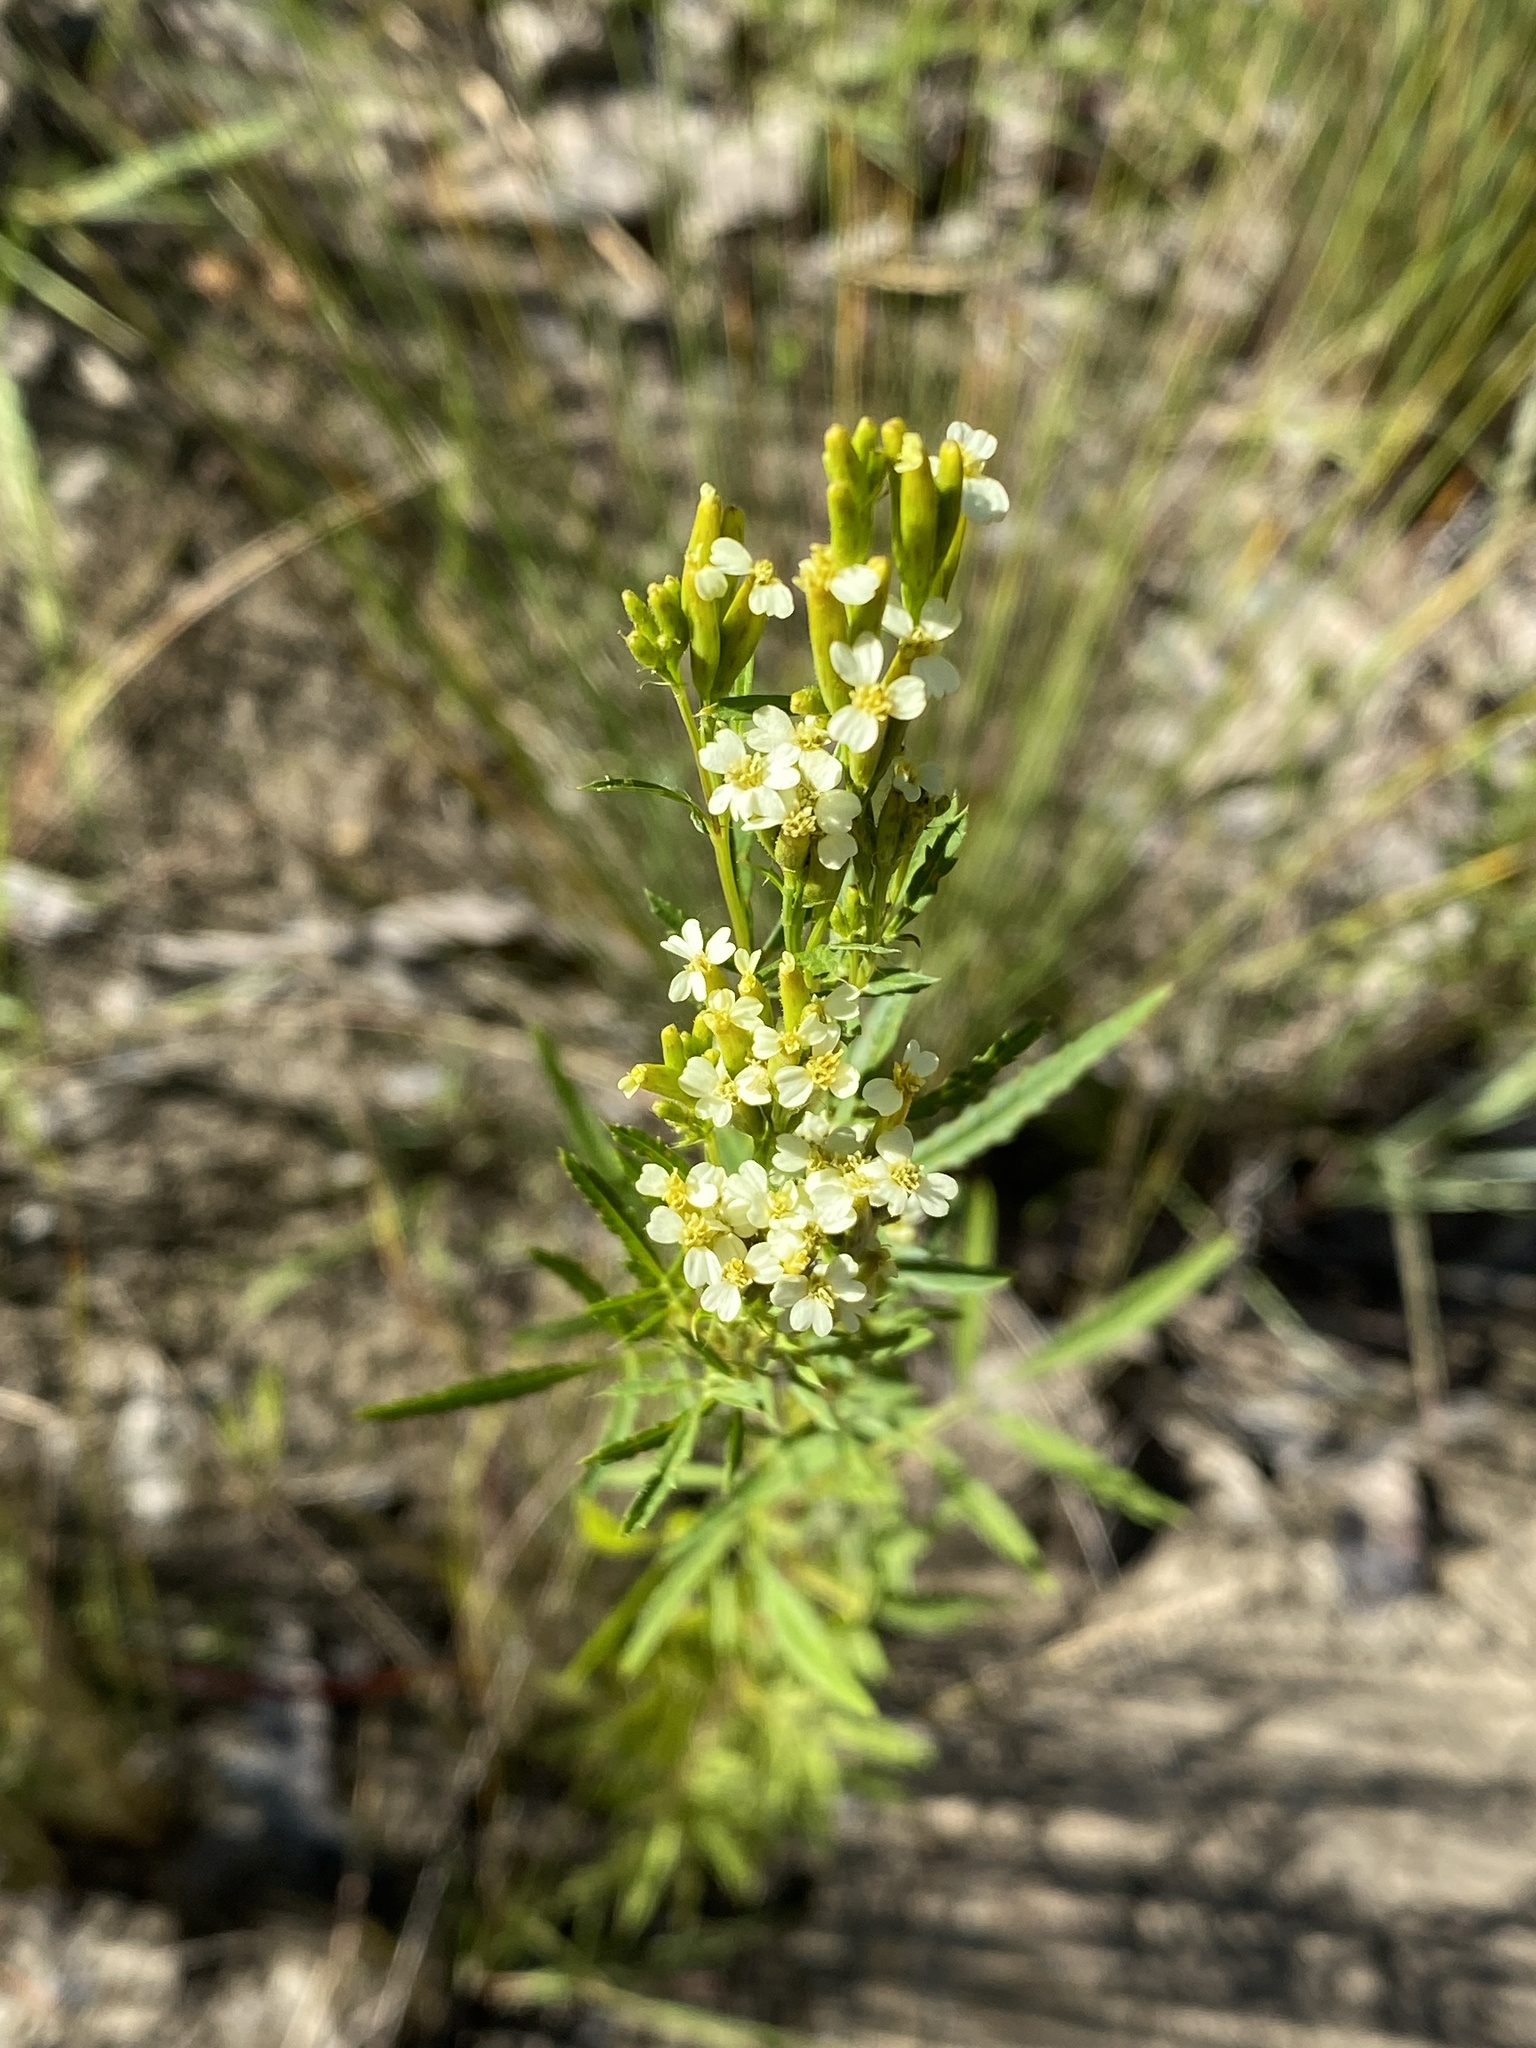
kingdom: Plantae
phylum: Tracheophyta
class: Magnoliopsida
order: Asterales
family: Asteraceae
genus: Tagetes
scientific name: Tagetes minuta
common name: Muster john henry
